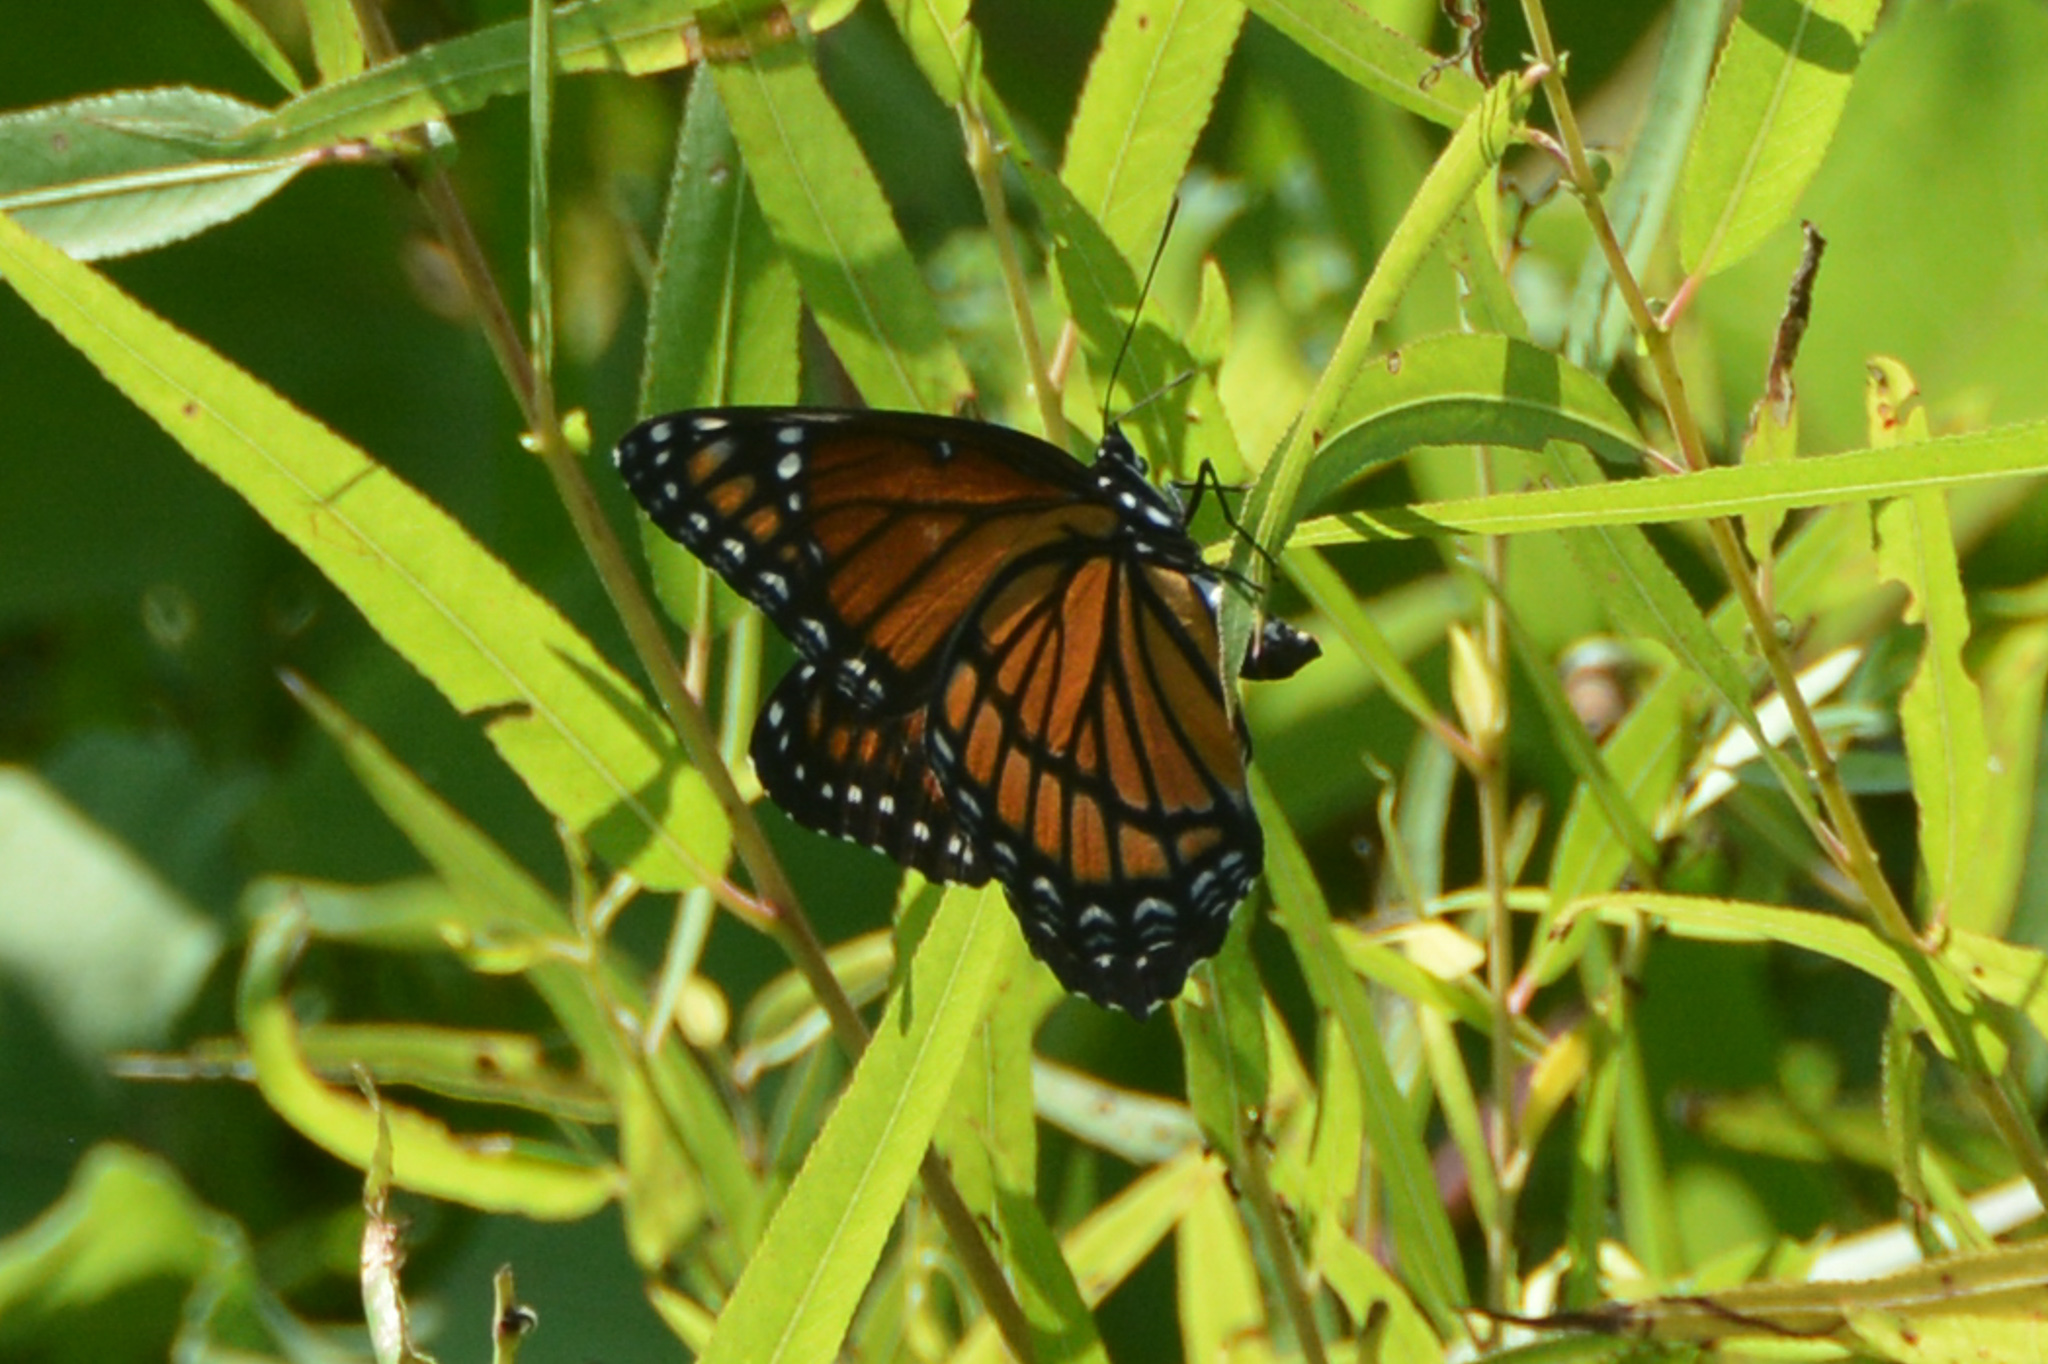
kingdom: Animalia
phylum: Arthropoda
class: Insecta
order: Lepidoptera
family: Nymphalidae
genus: Limenitis
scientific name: Limenitis archippus
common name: Viceroy
